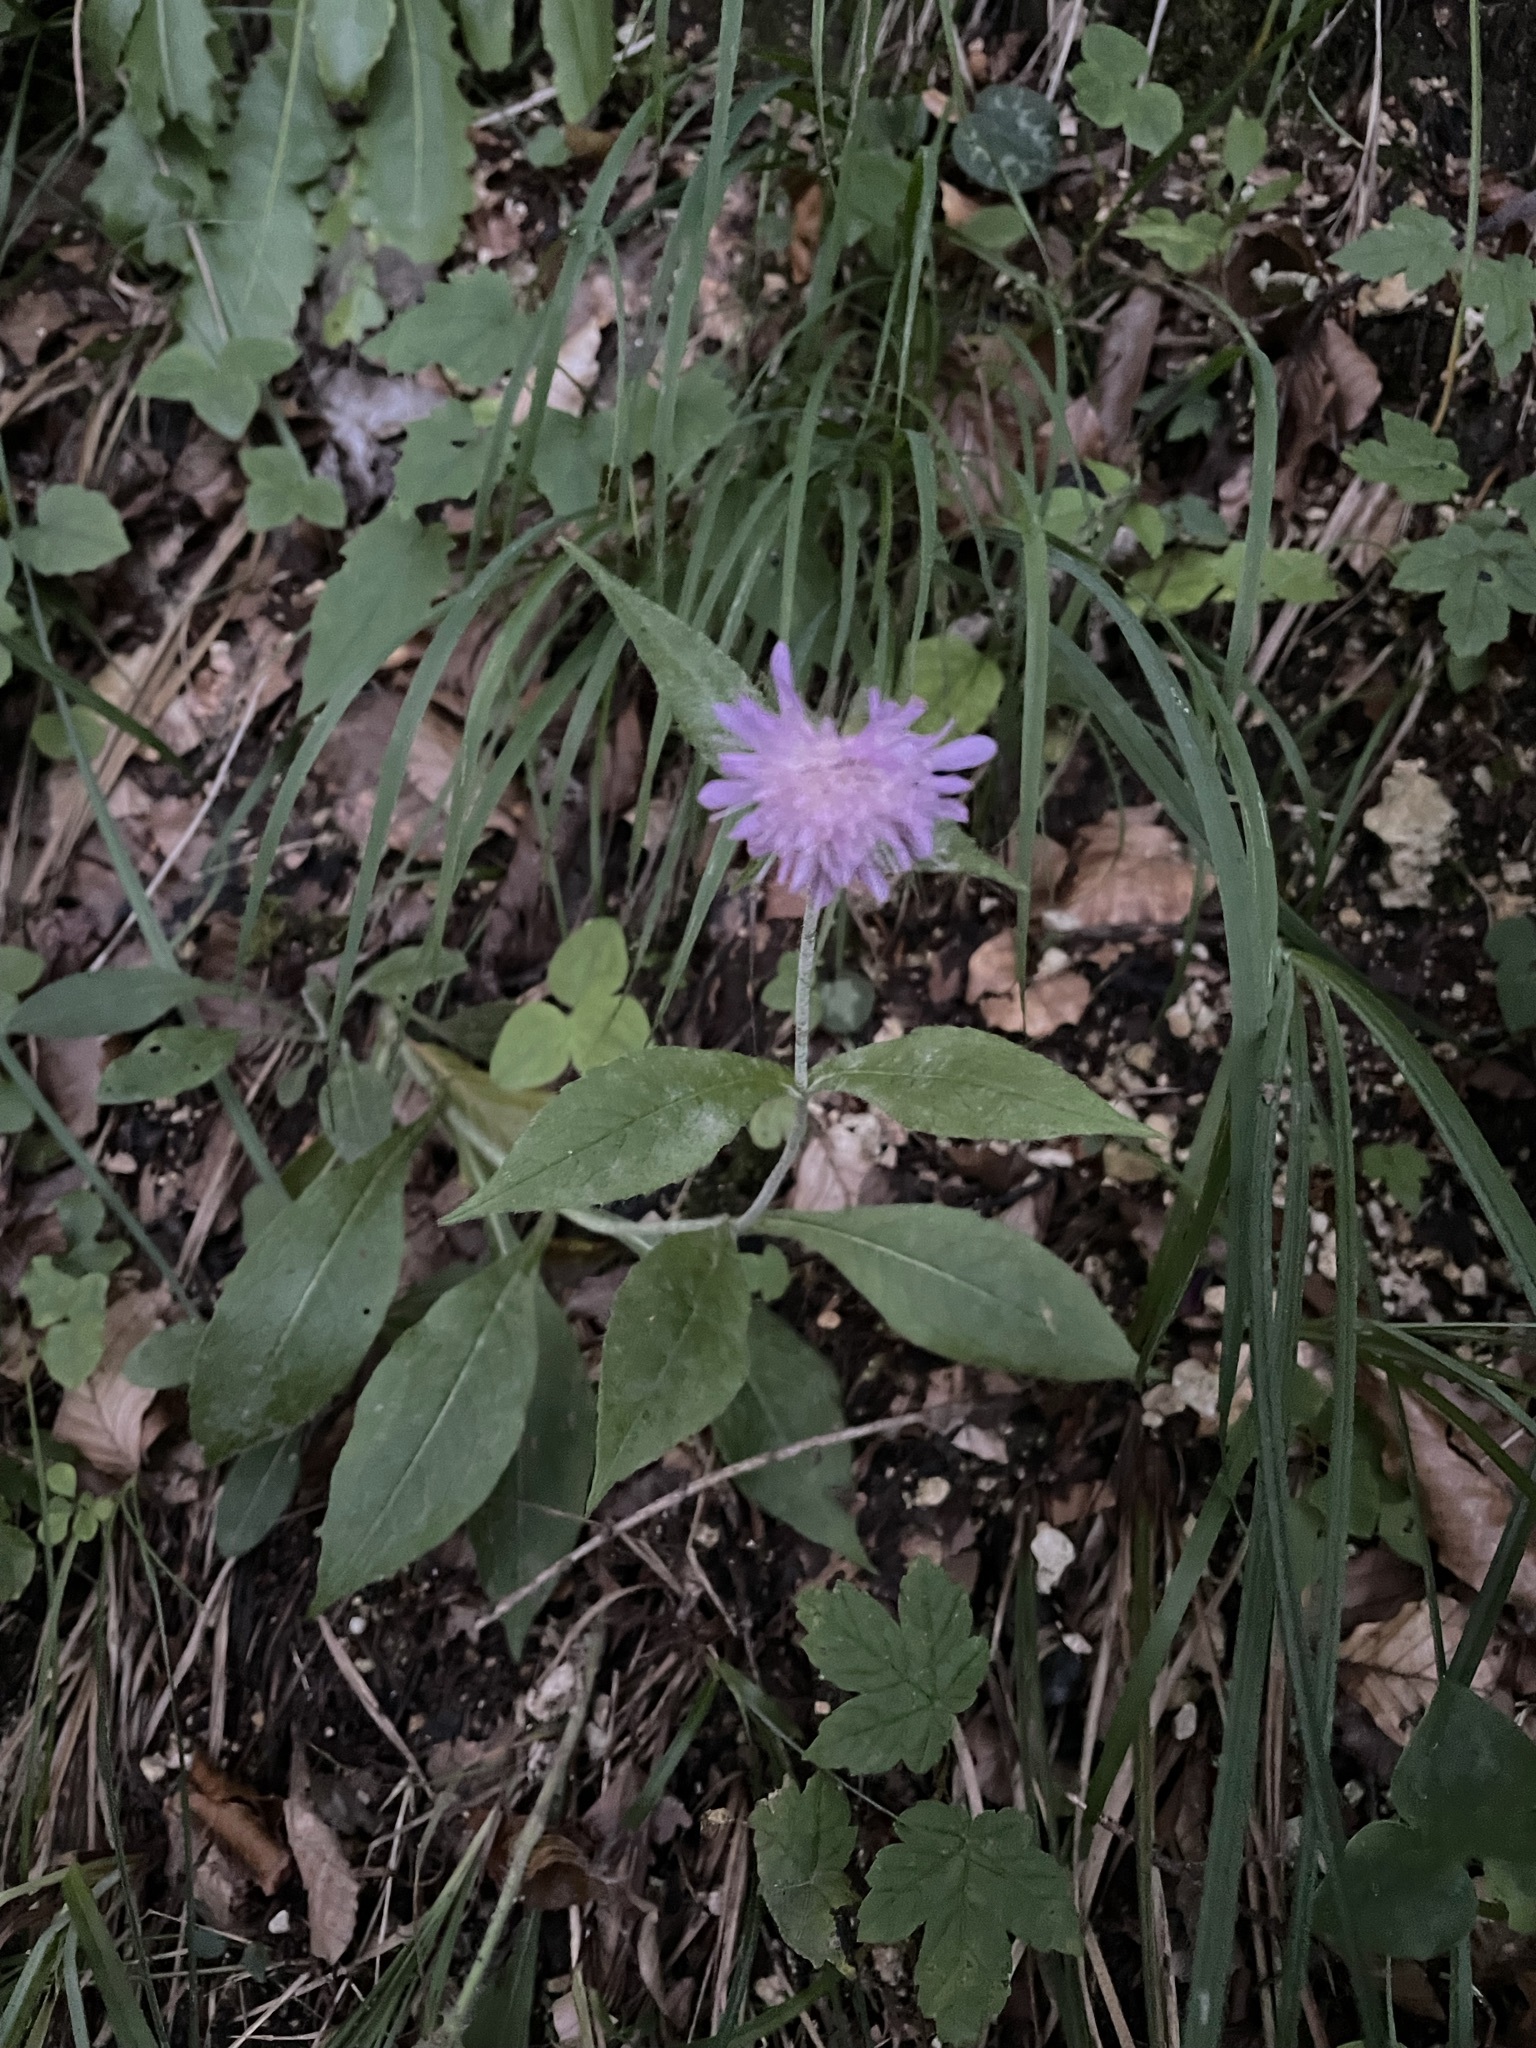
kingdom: Plantae
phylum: Tracheophyta
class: Magnoliopsida
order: Dipsacales
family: Caprifoliaceae
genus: Knautia
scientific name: Knautia dipsacifolia
